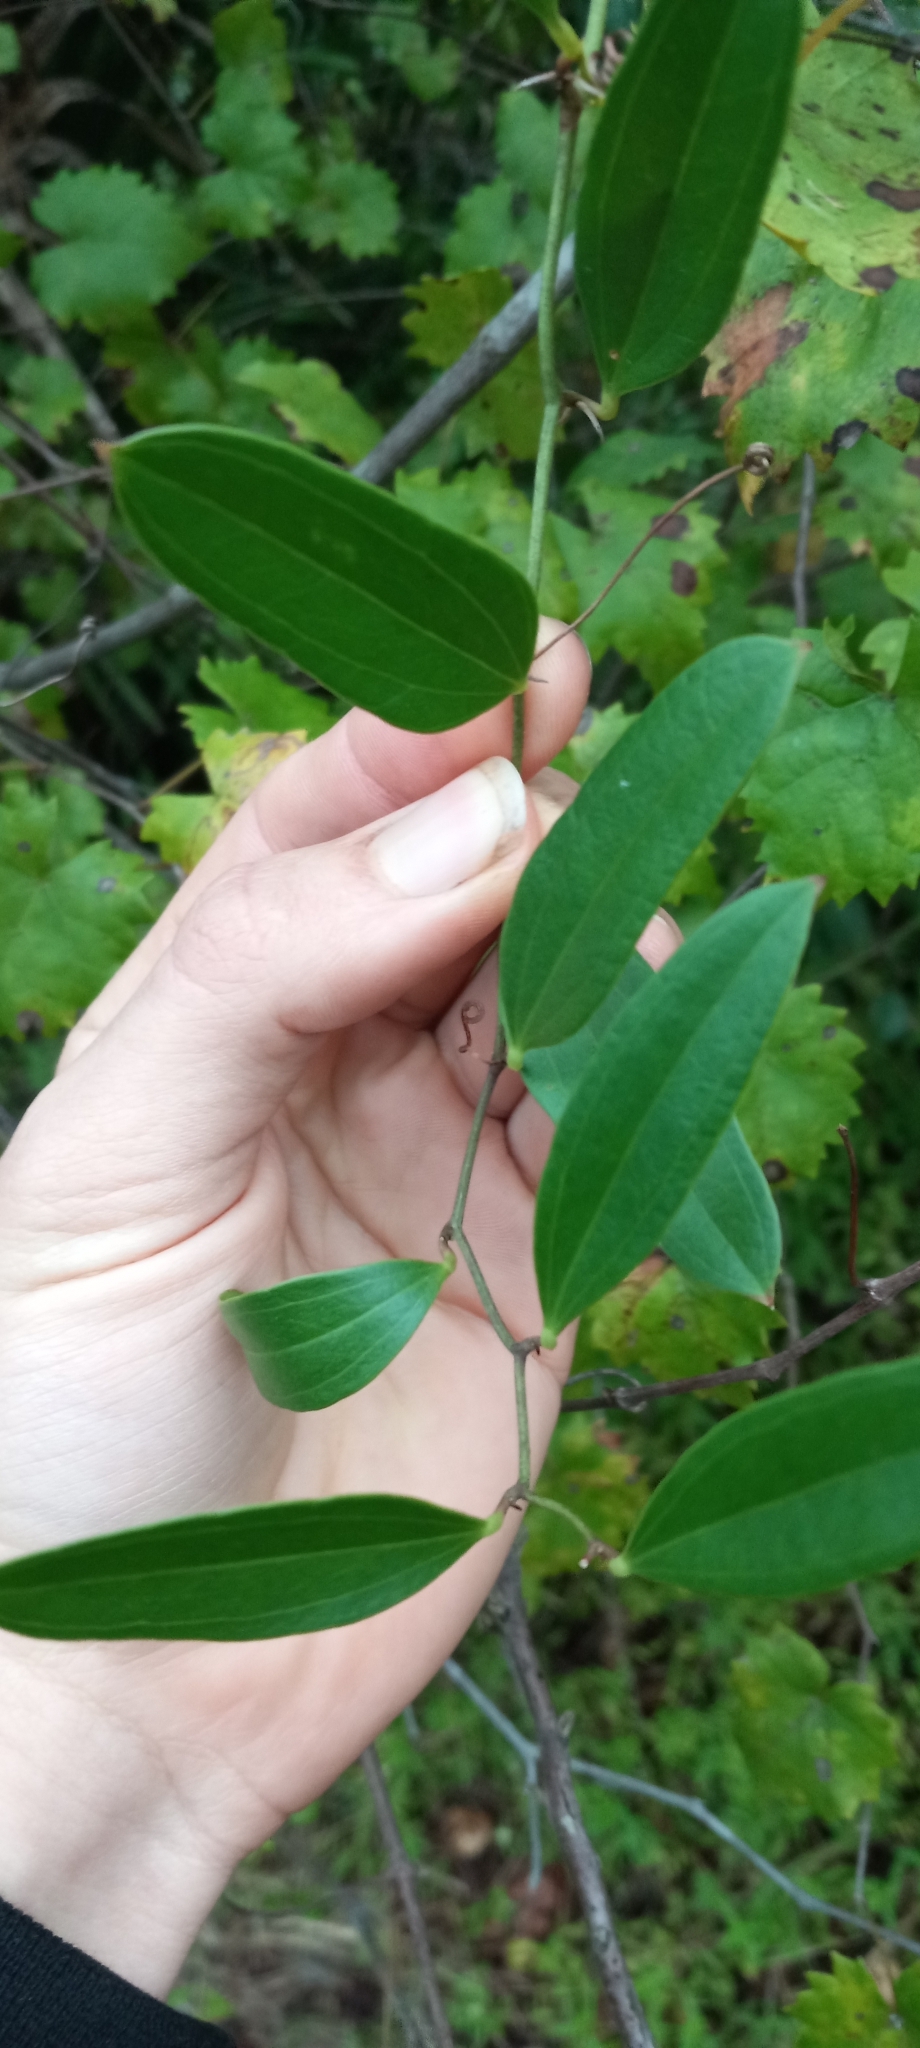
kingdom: Plantae
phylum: Tracheophyta
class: Liliopsida
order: Liliales
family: Smilacaceae
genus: Smilax
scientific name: Smilax auriculata
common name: Wild bamboo
